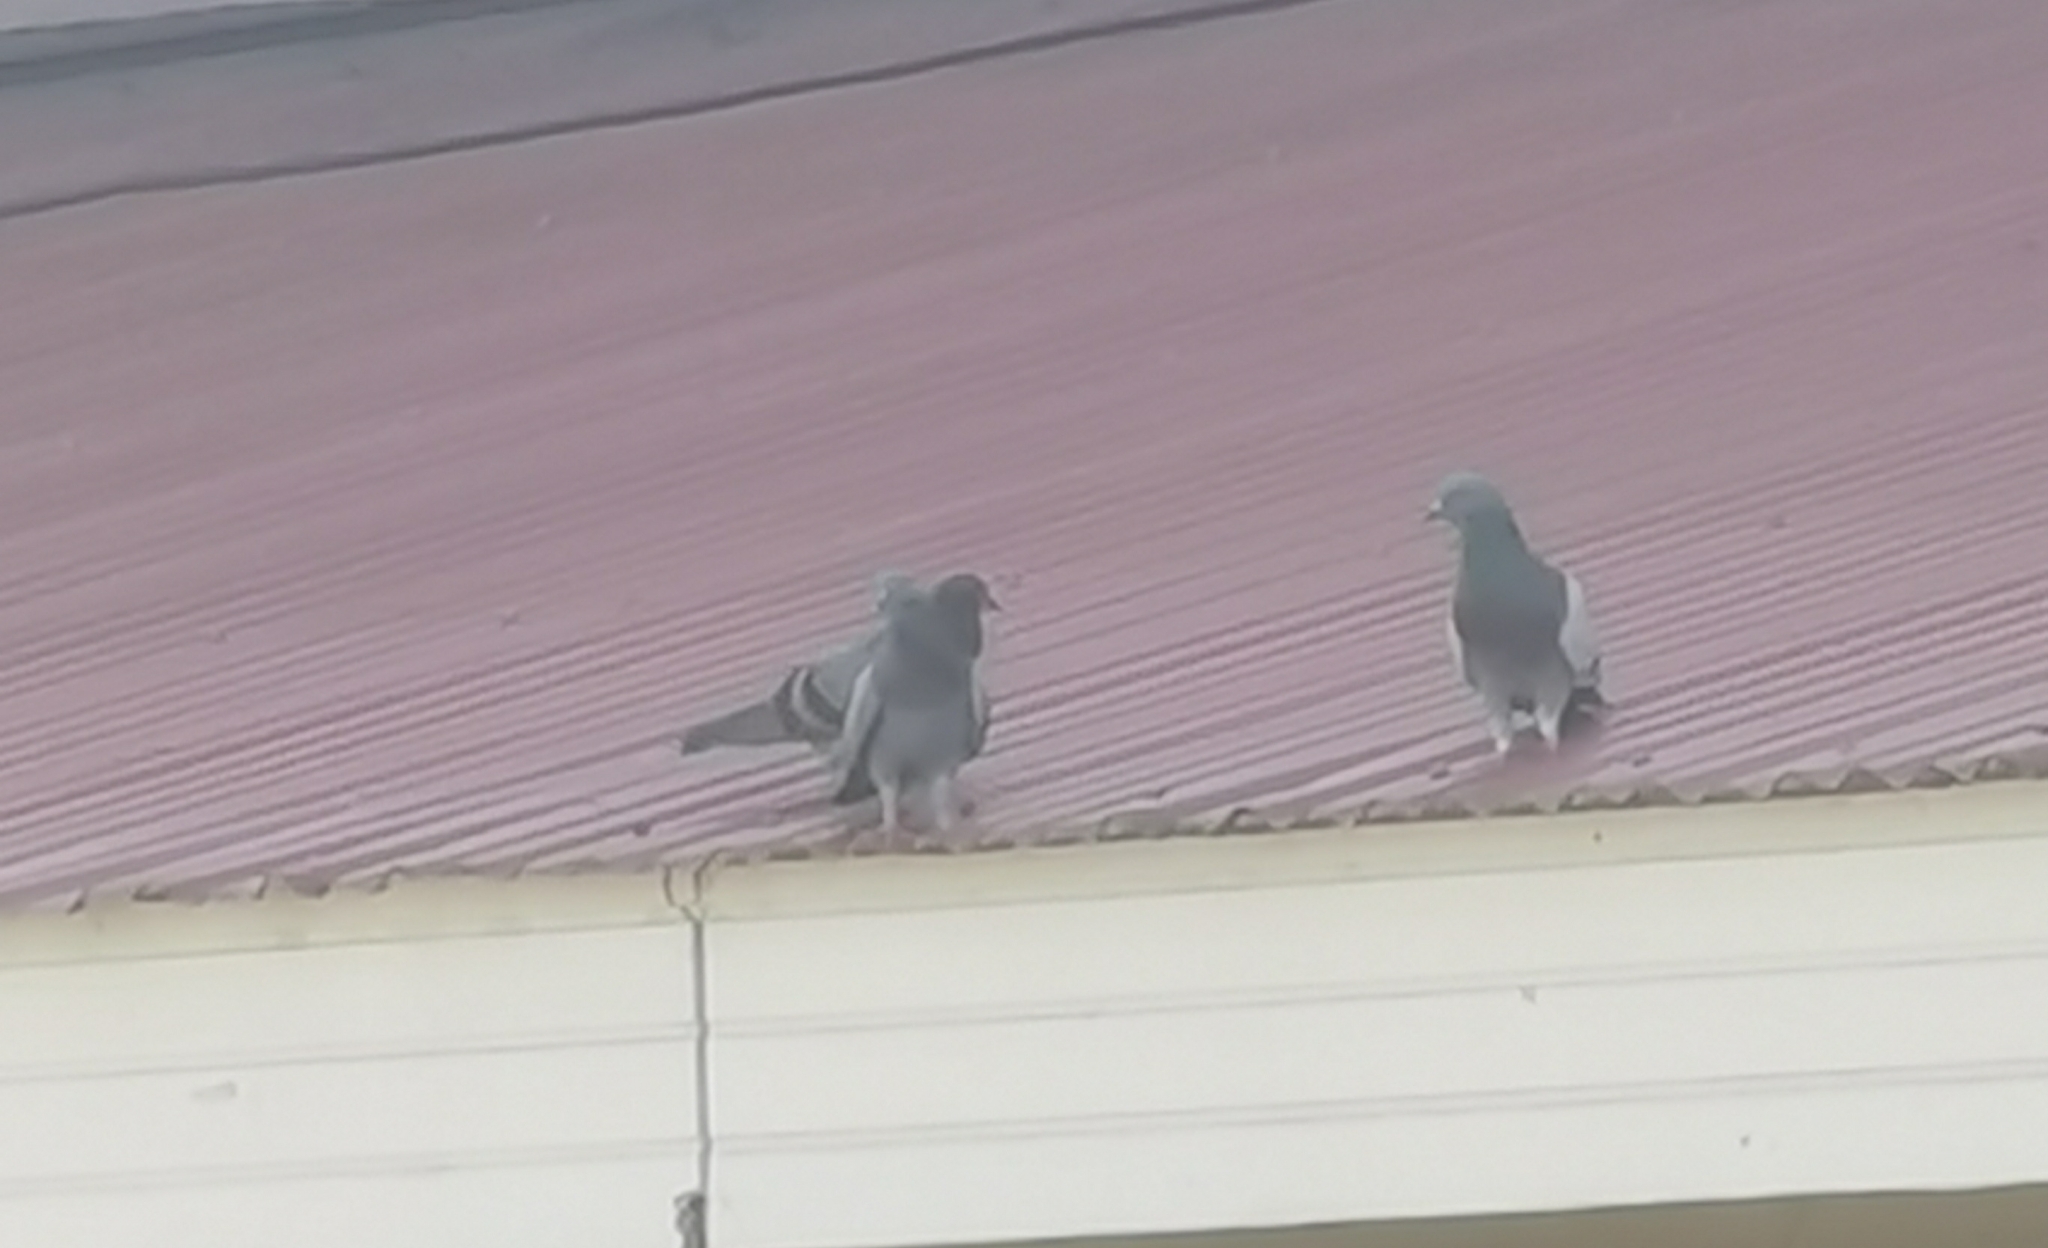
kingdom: Animalia
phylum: Chordata
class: Aves
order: Columbiformes
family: Columbidae
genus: Columba
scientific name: Columba livia
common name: Rock pigeon
